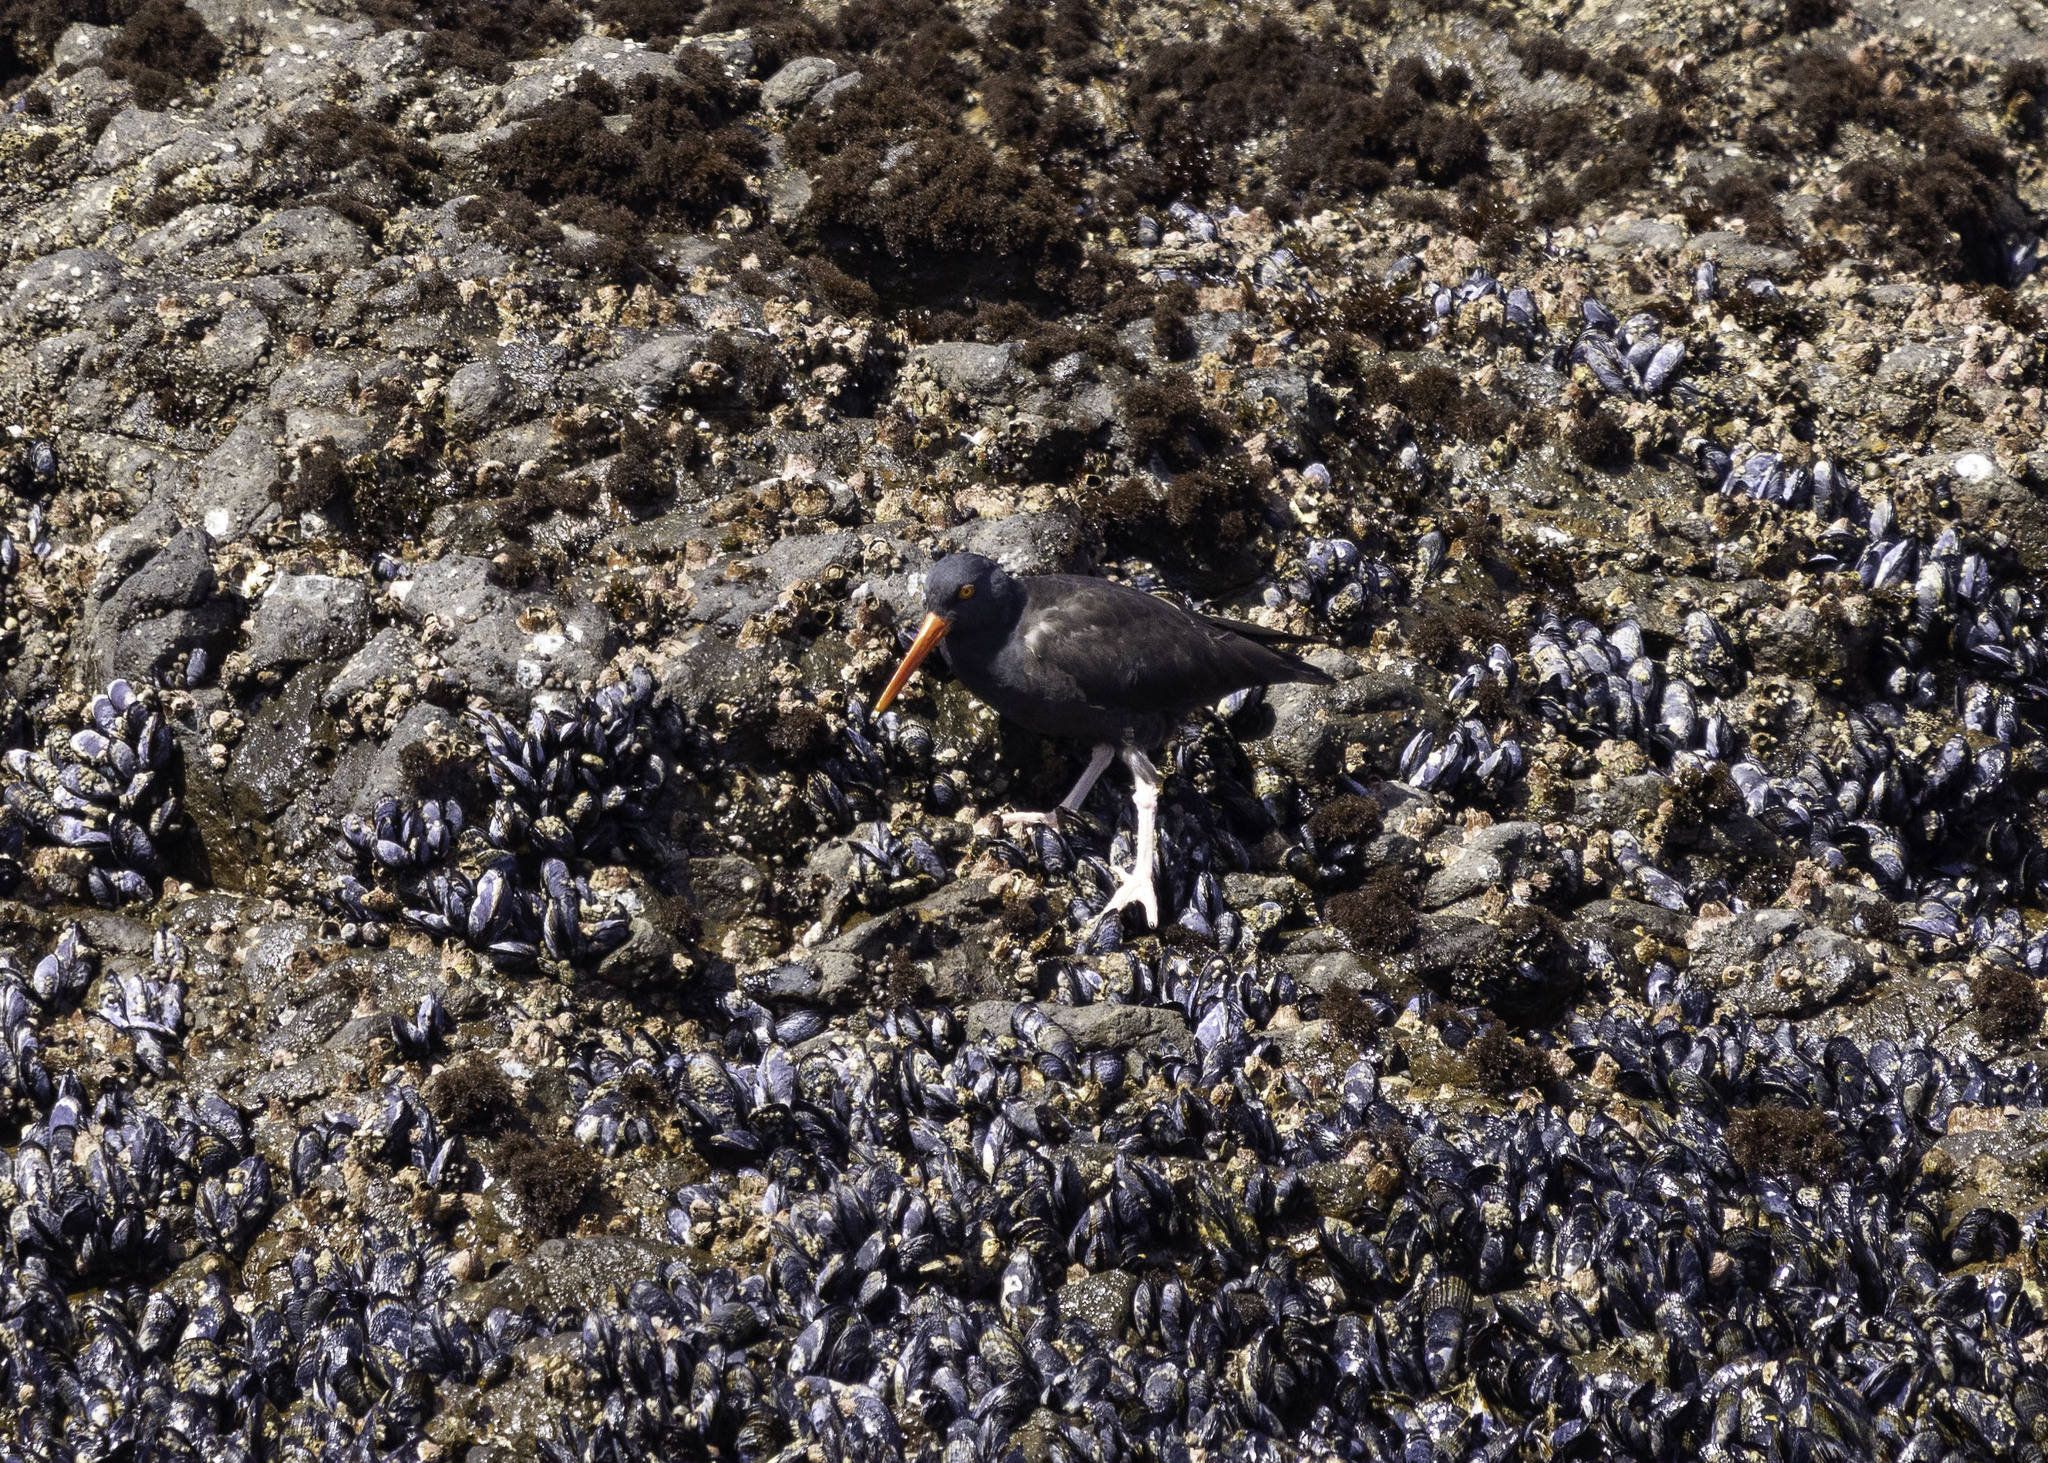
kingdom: Animalia
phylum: Chordata
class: Aves
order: Charadriiformes
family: Haematopodidae
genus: Haematopus
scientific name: Haematopus bachmani
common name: Black oystercatcher
